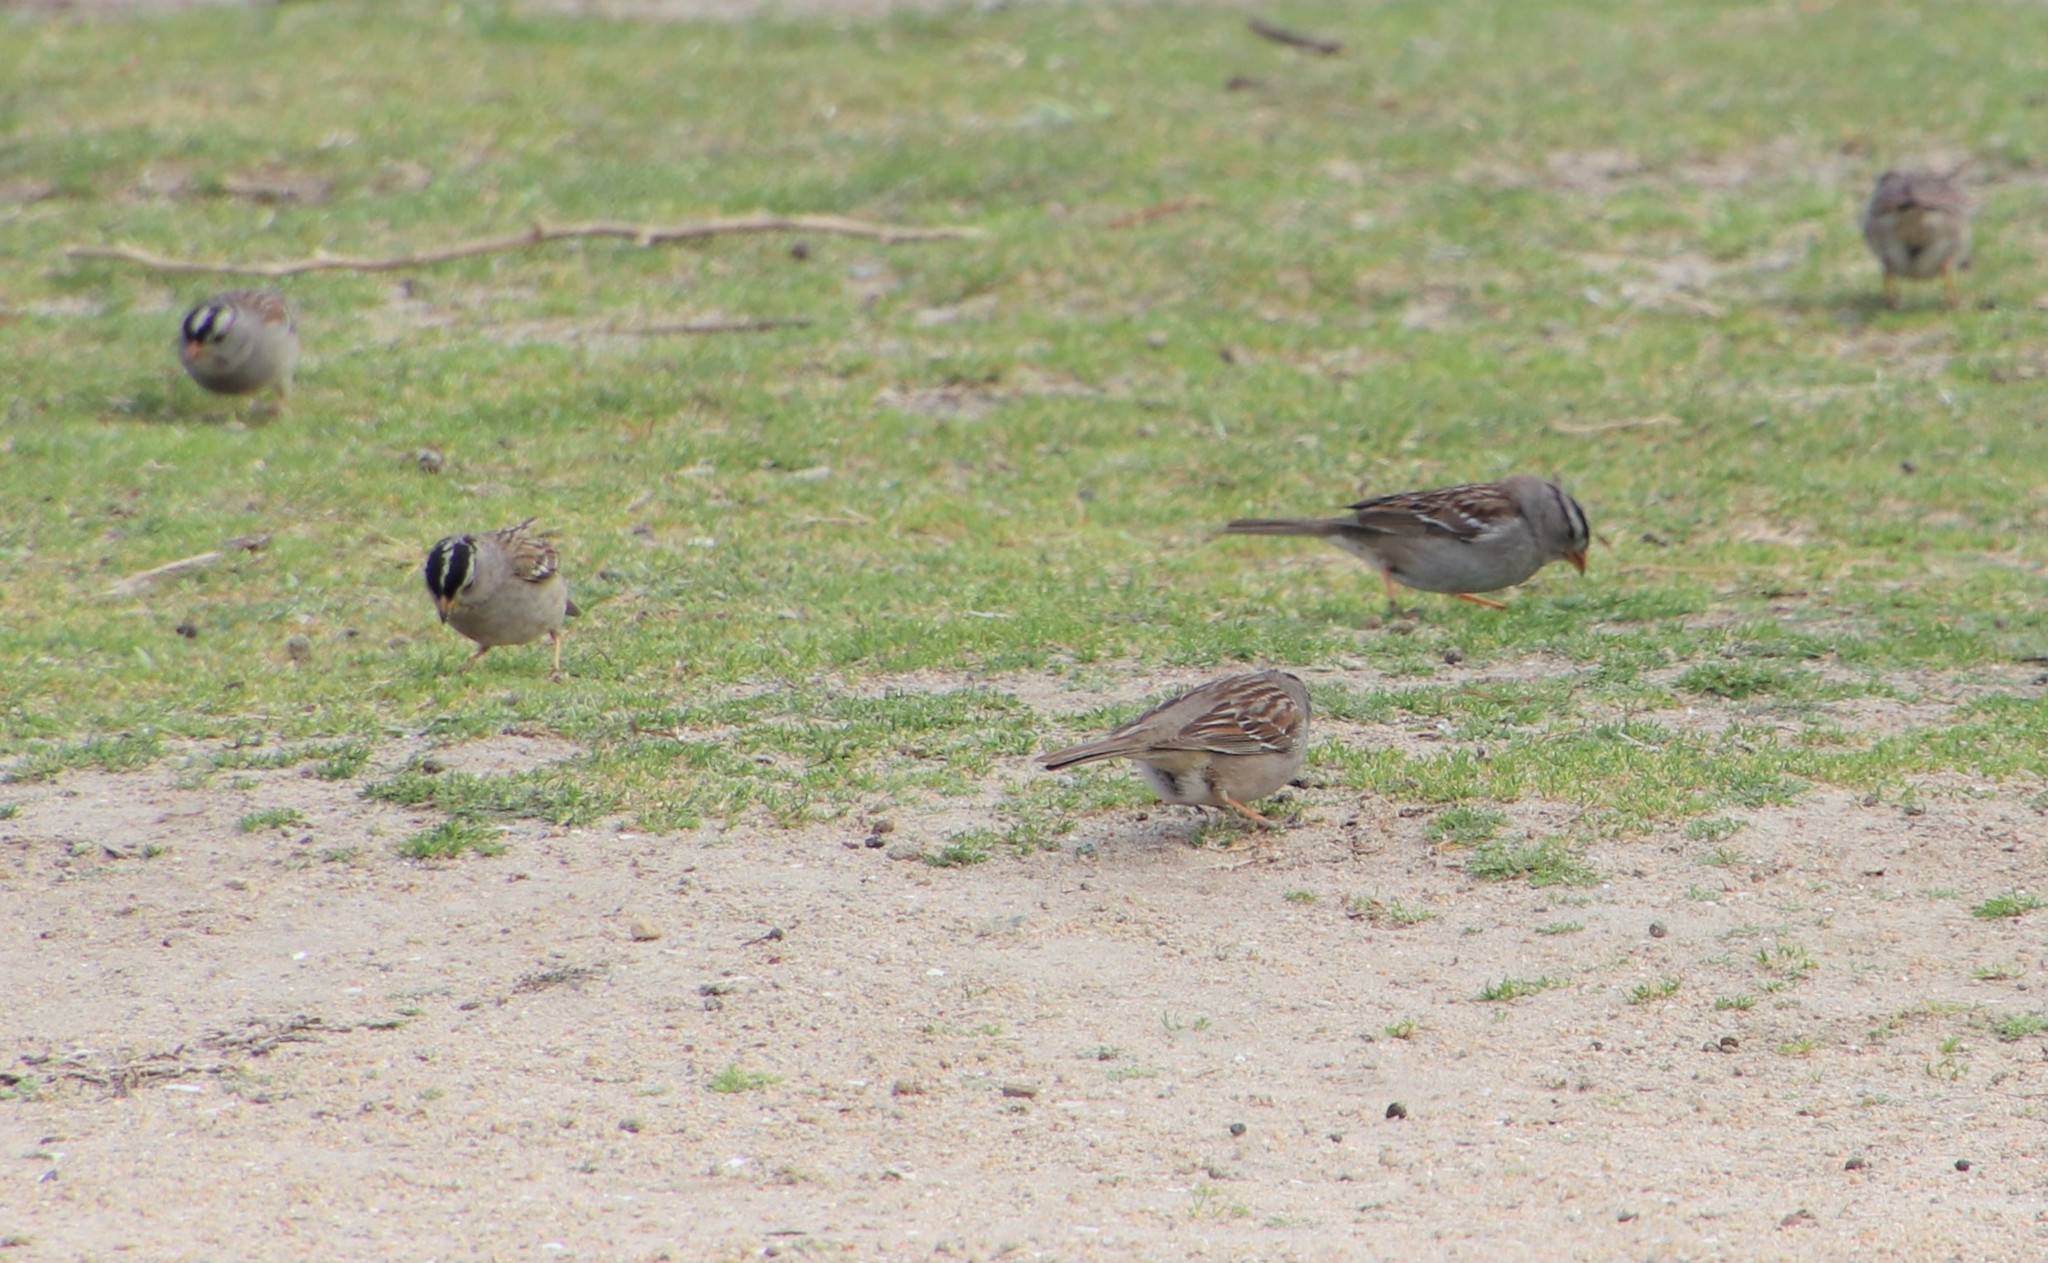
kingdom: Animalia
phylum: Chordata
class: Aves
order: Passeriformes
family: Passerellidae
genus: Zonotrichia
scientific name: Zonotrichia leucophrys
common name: White-crowned sparrow
